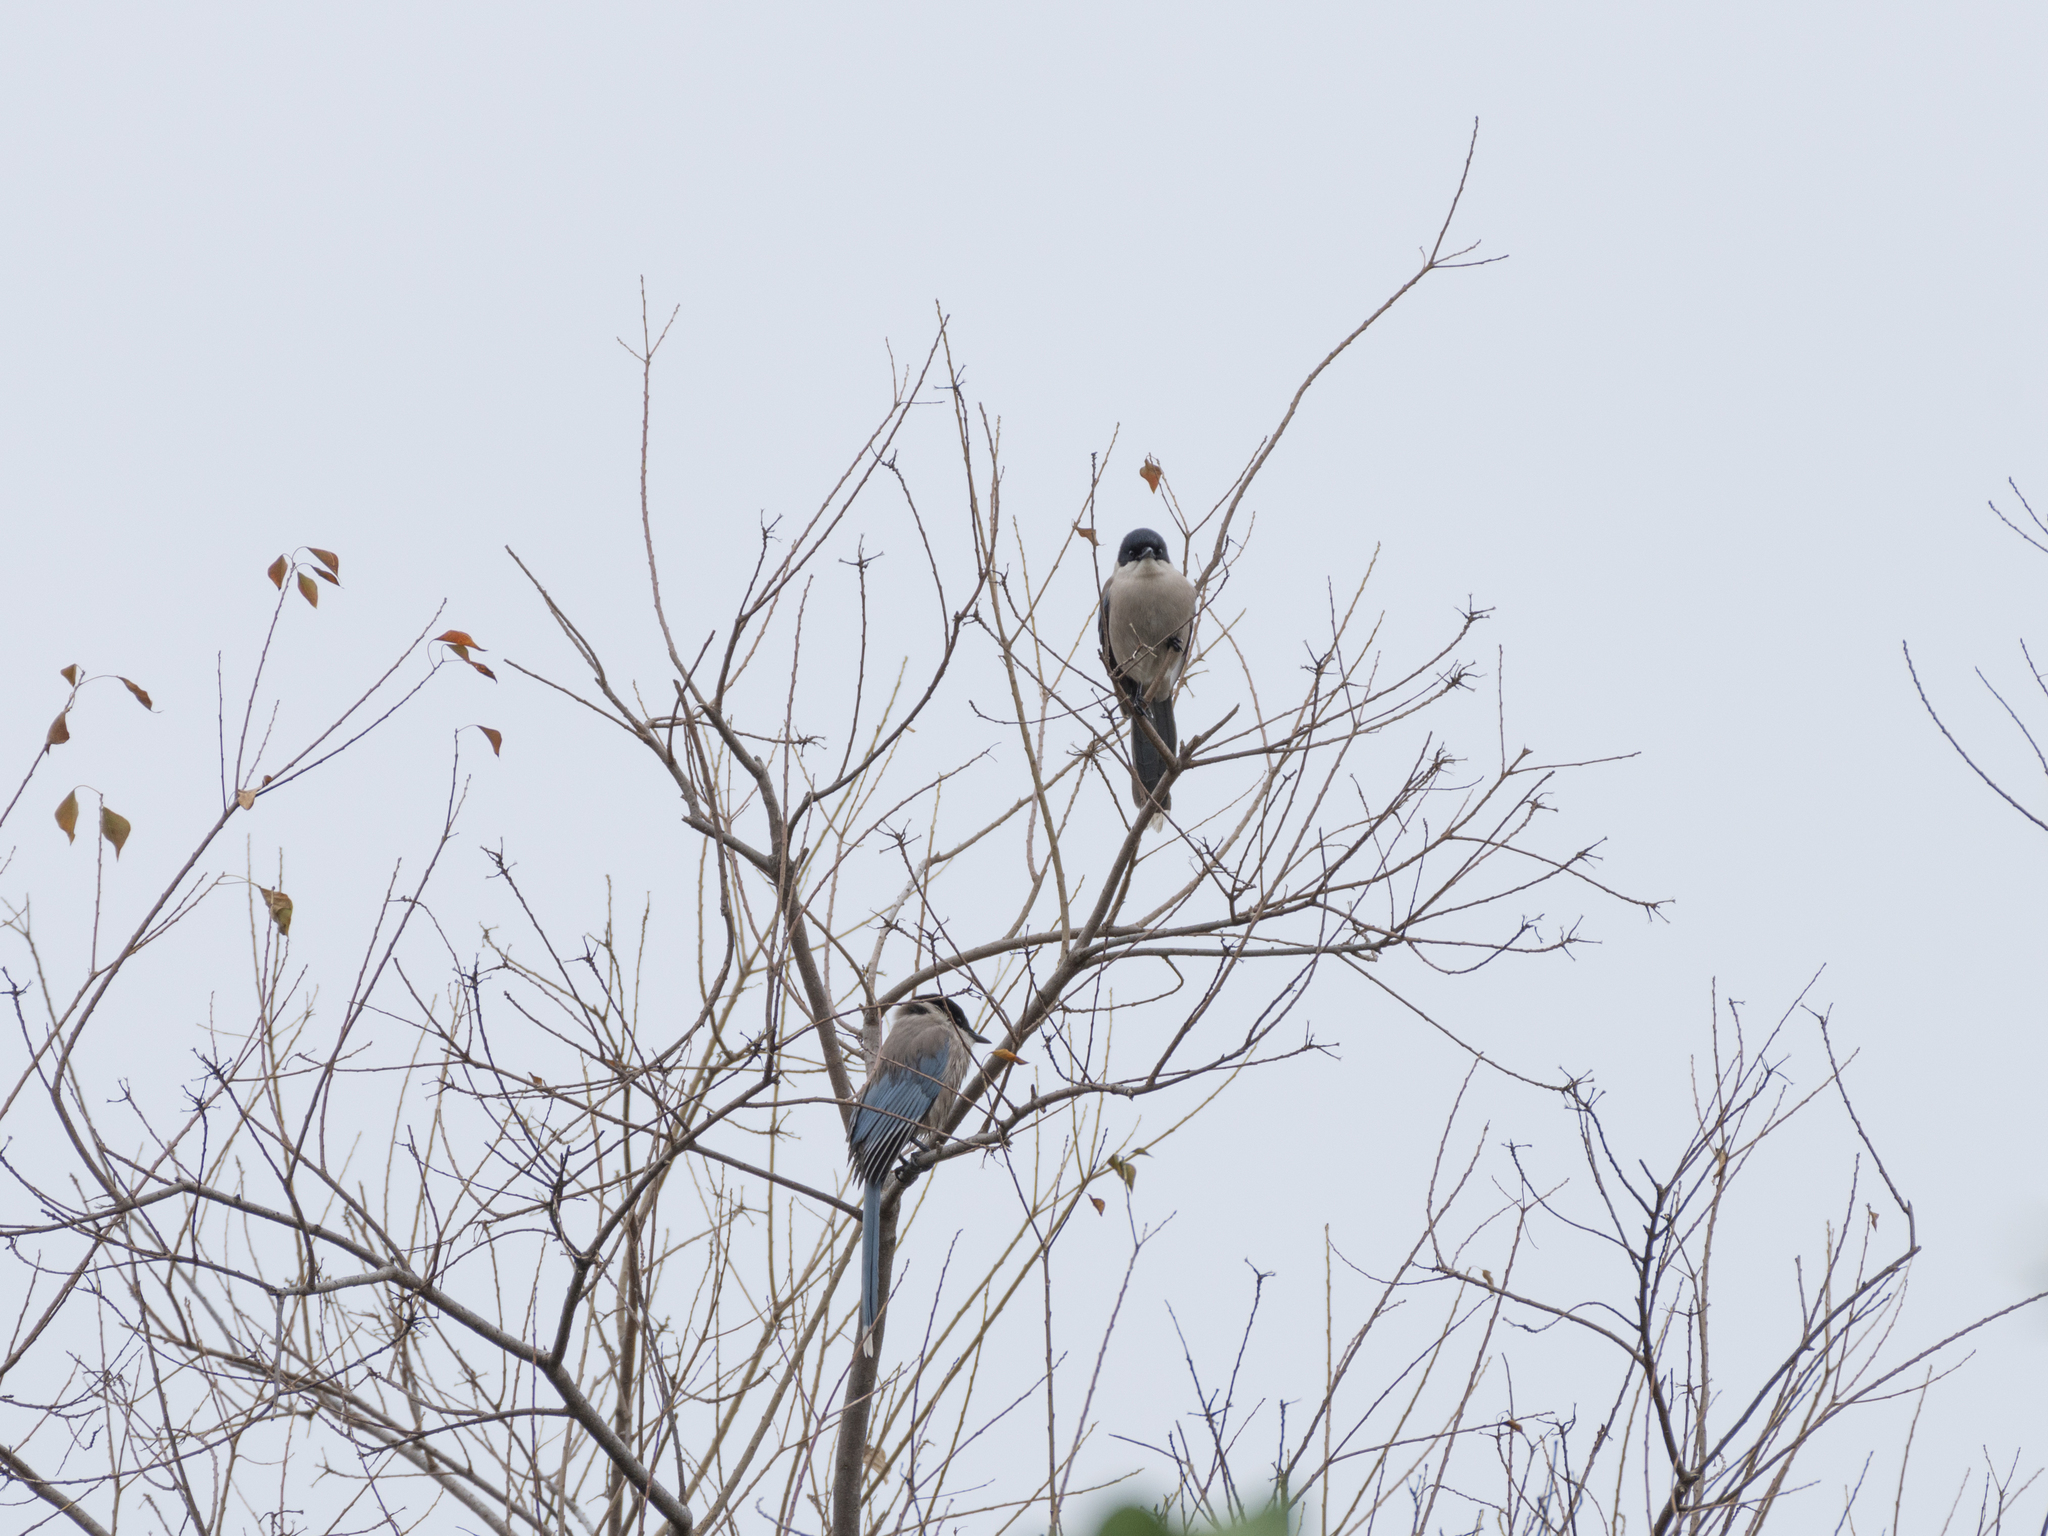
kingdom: Animalia
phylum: Chordata
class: Aves
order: Passeriformes
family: Corvidae
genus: Cyanopica
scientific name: Cyanopica cyanus
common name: Azure-winged magpie
